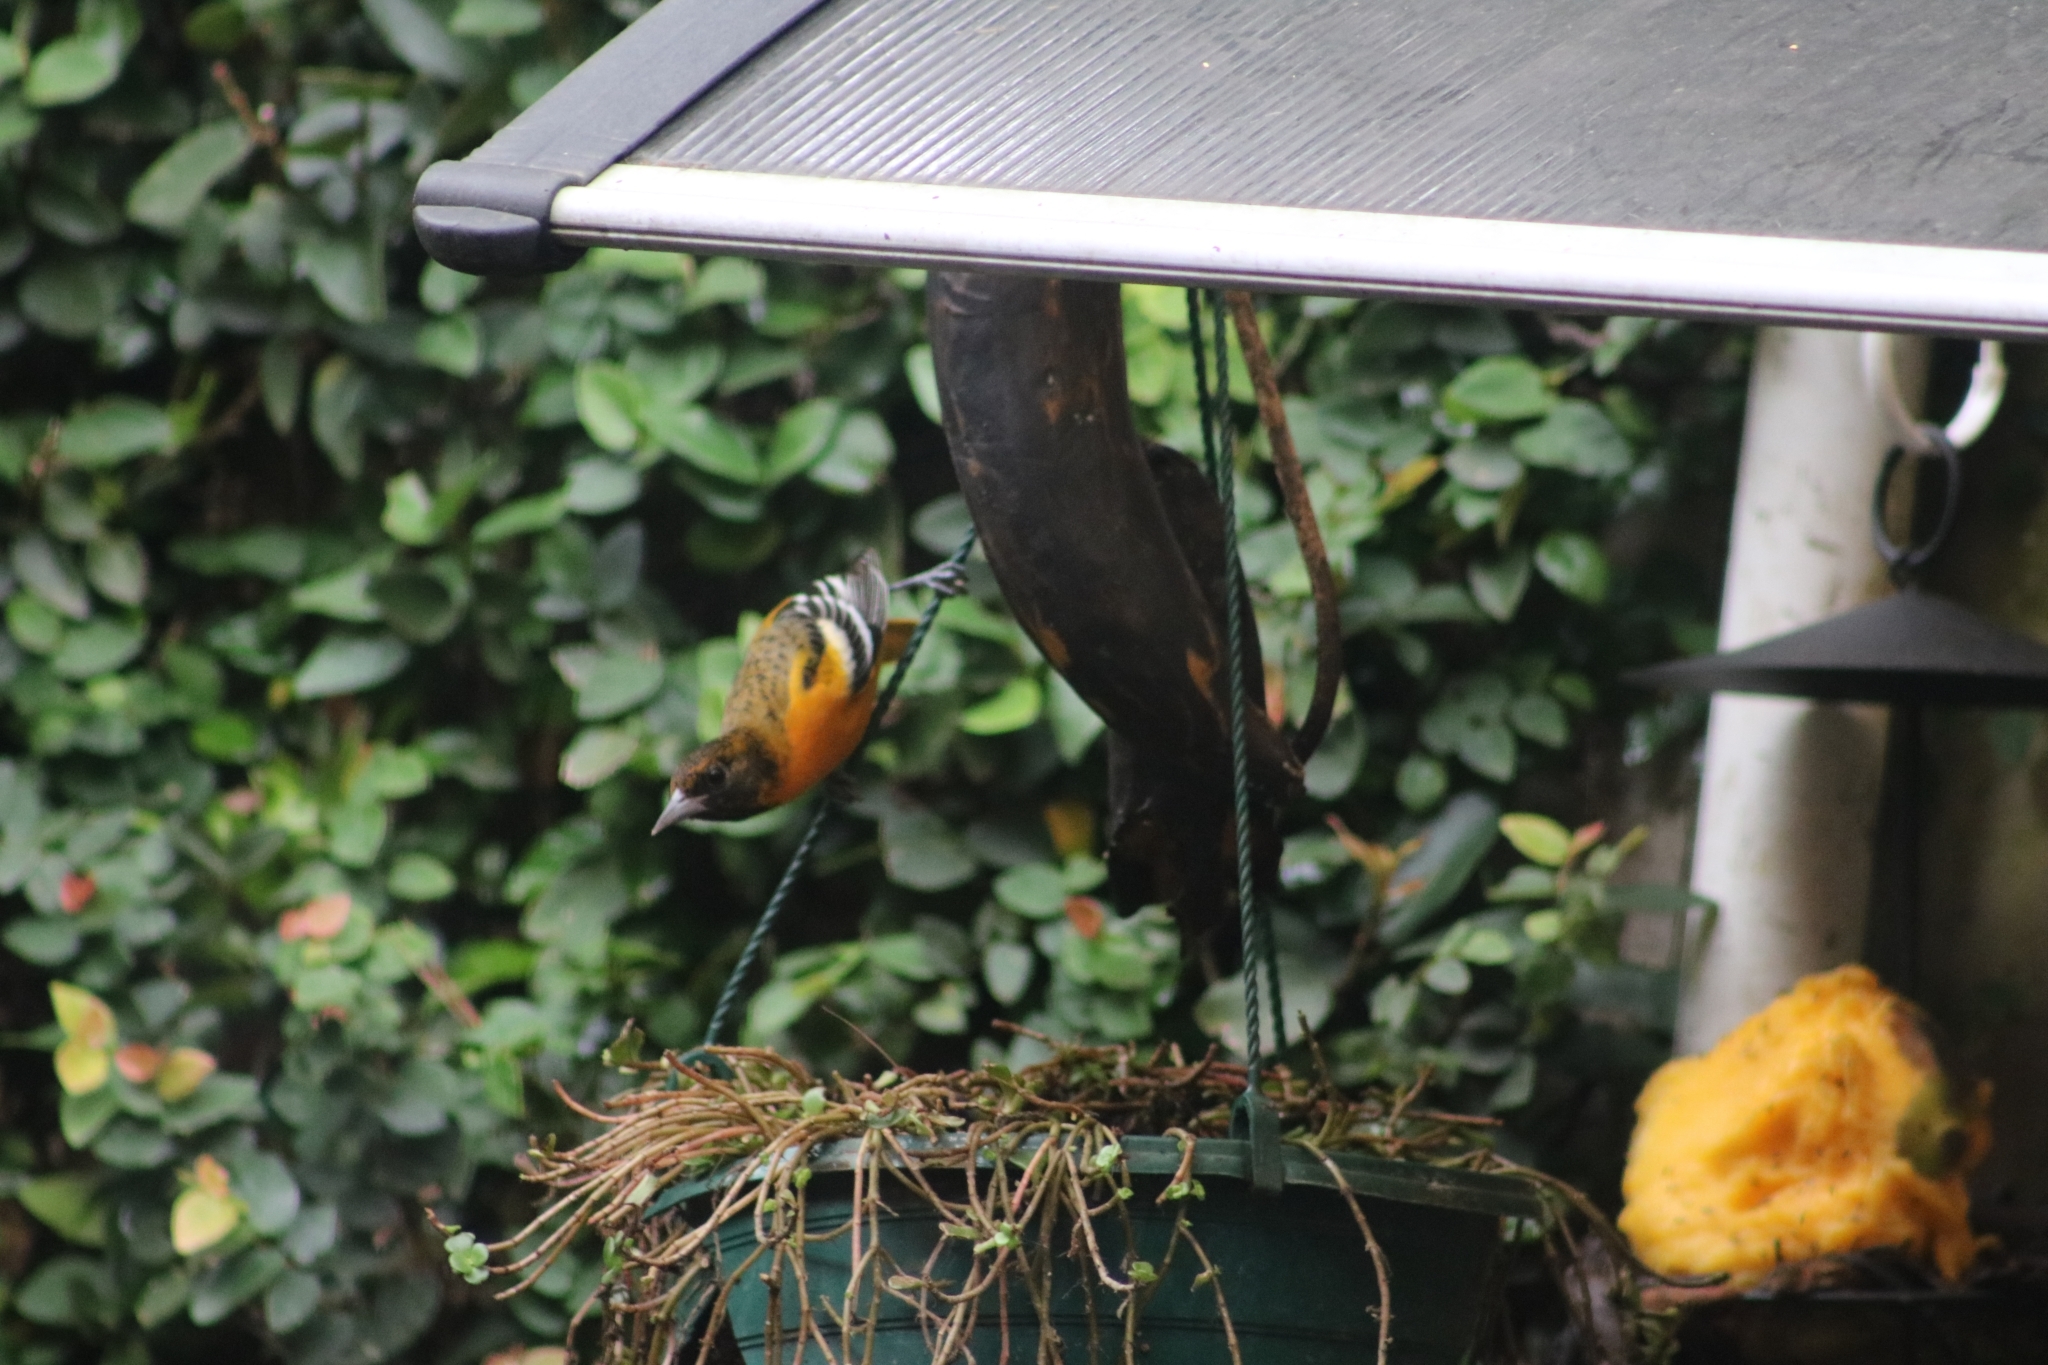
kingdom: Animalia
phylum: Chordata
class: Aves
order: Passeriformes
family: Icteridae
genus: Icterus
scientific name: Icterus galbula
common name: Baltimore oriole
